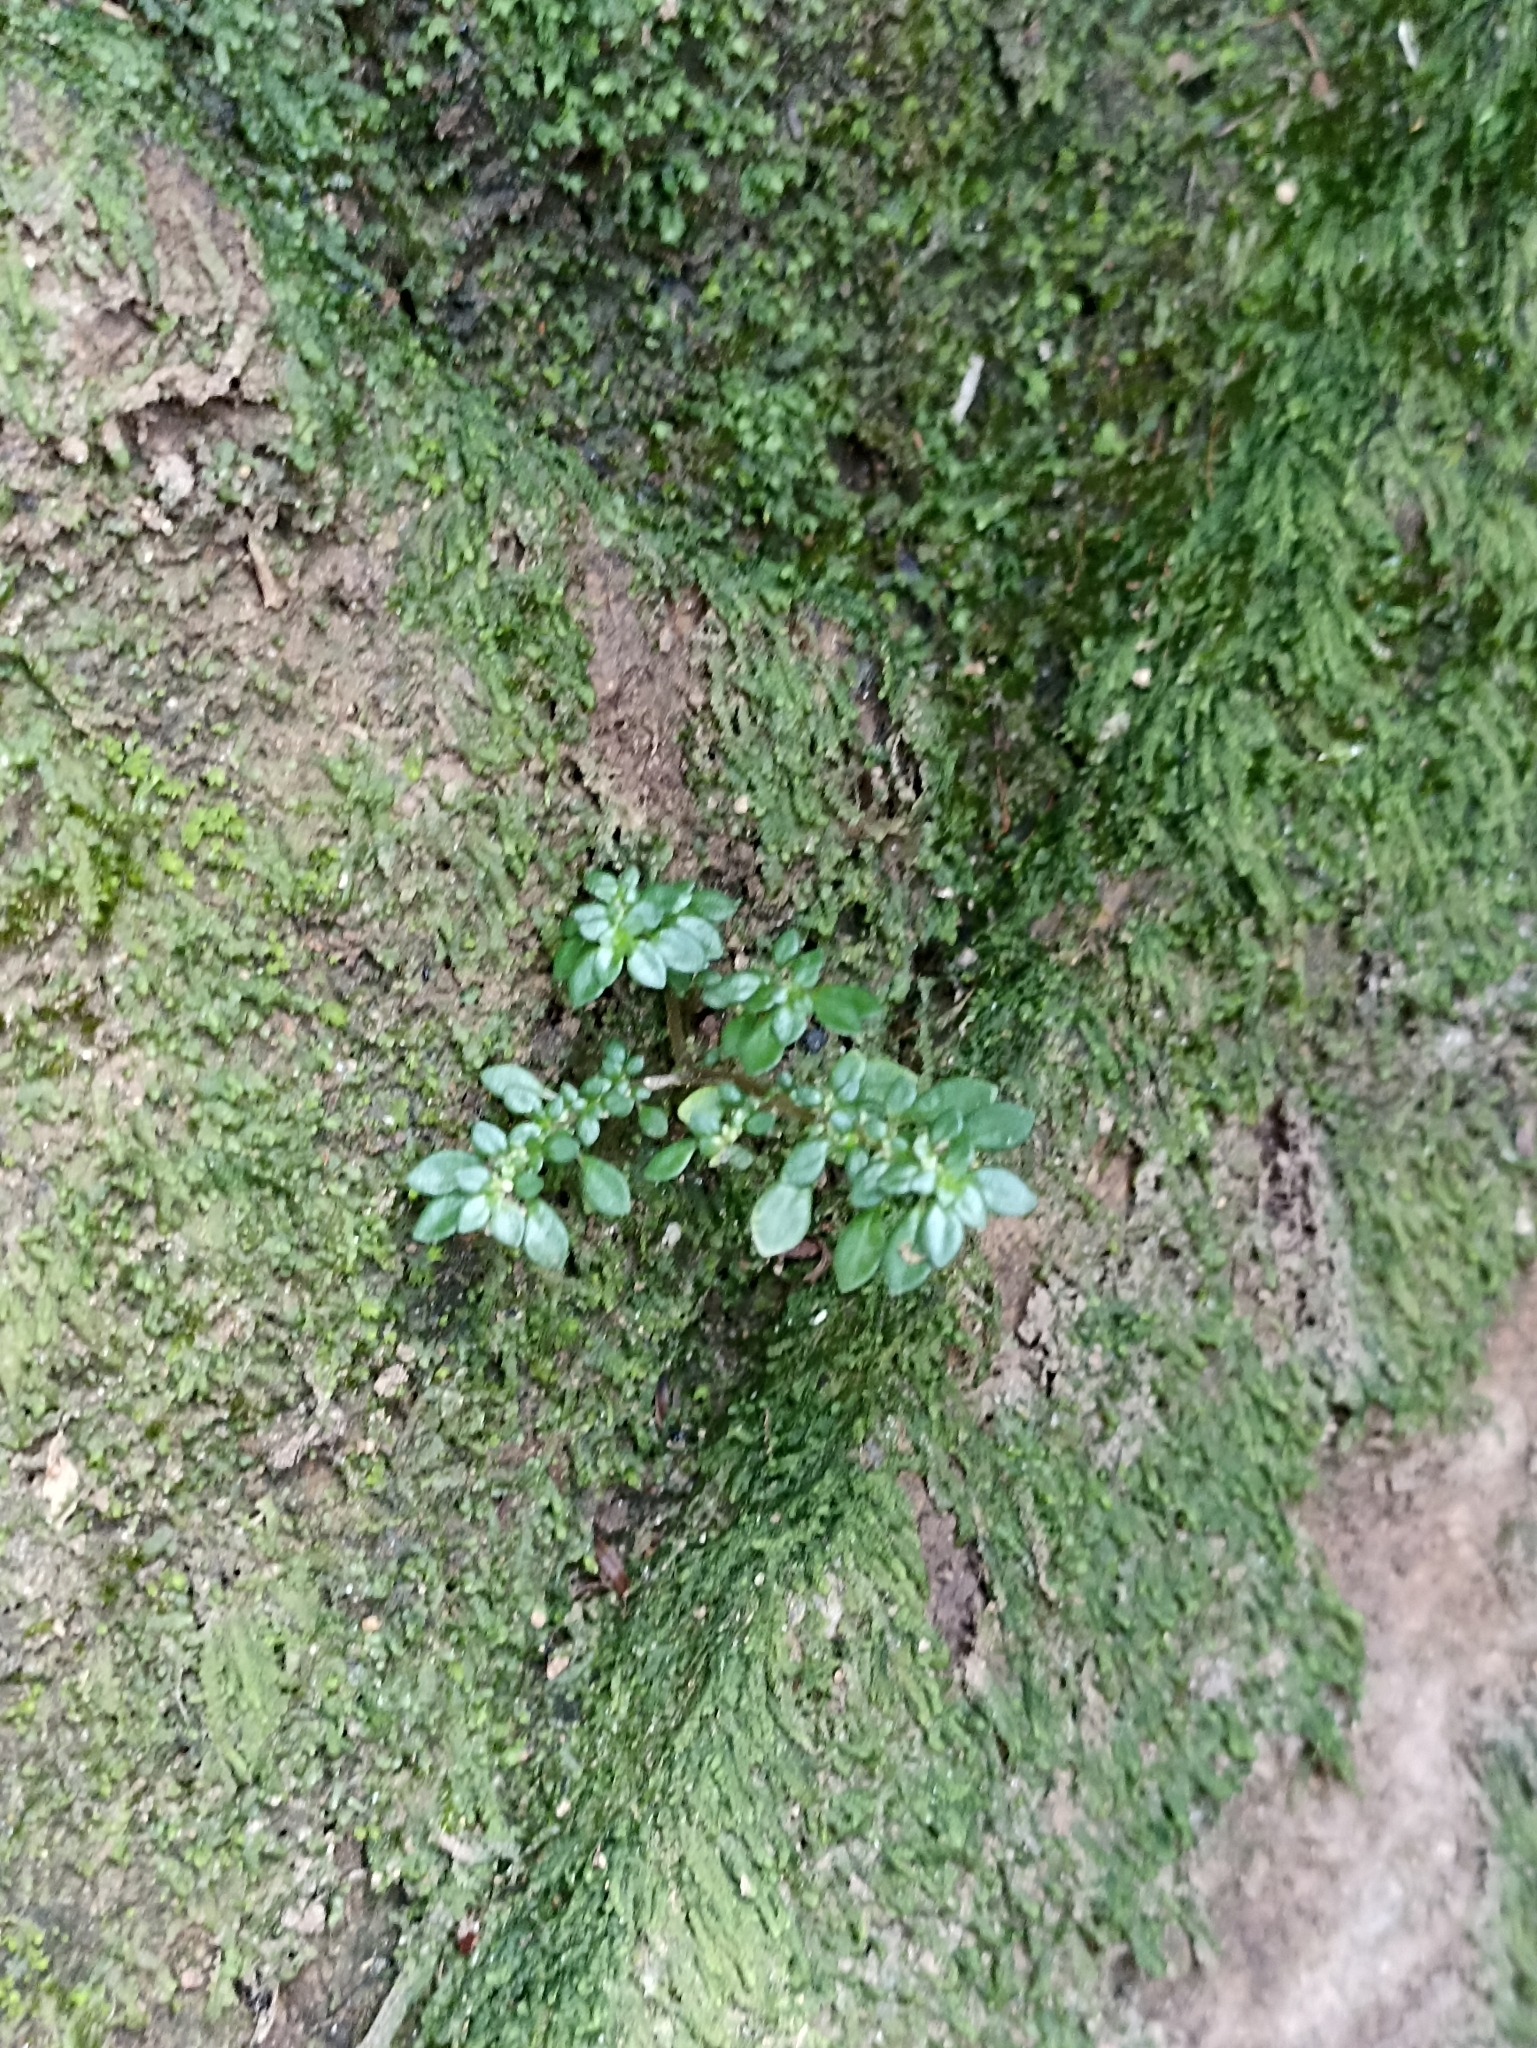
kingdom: Plantae
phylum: Tracheophyta
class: Magnoliopsida
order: Rosales
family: Urticaceae
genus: Pilea
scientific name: Pilea microphylla
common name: Artillery-plant
